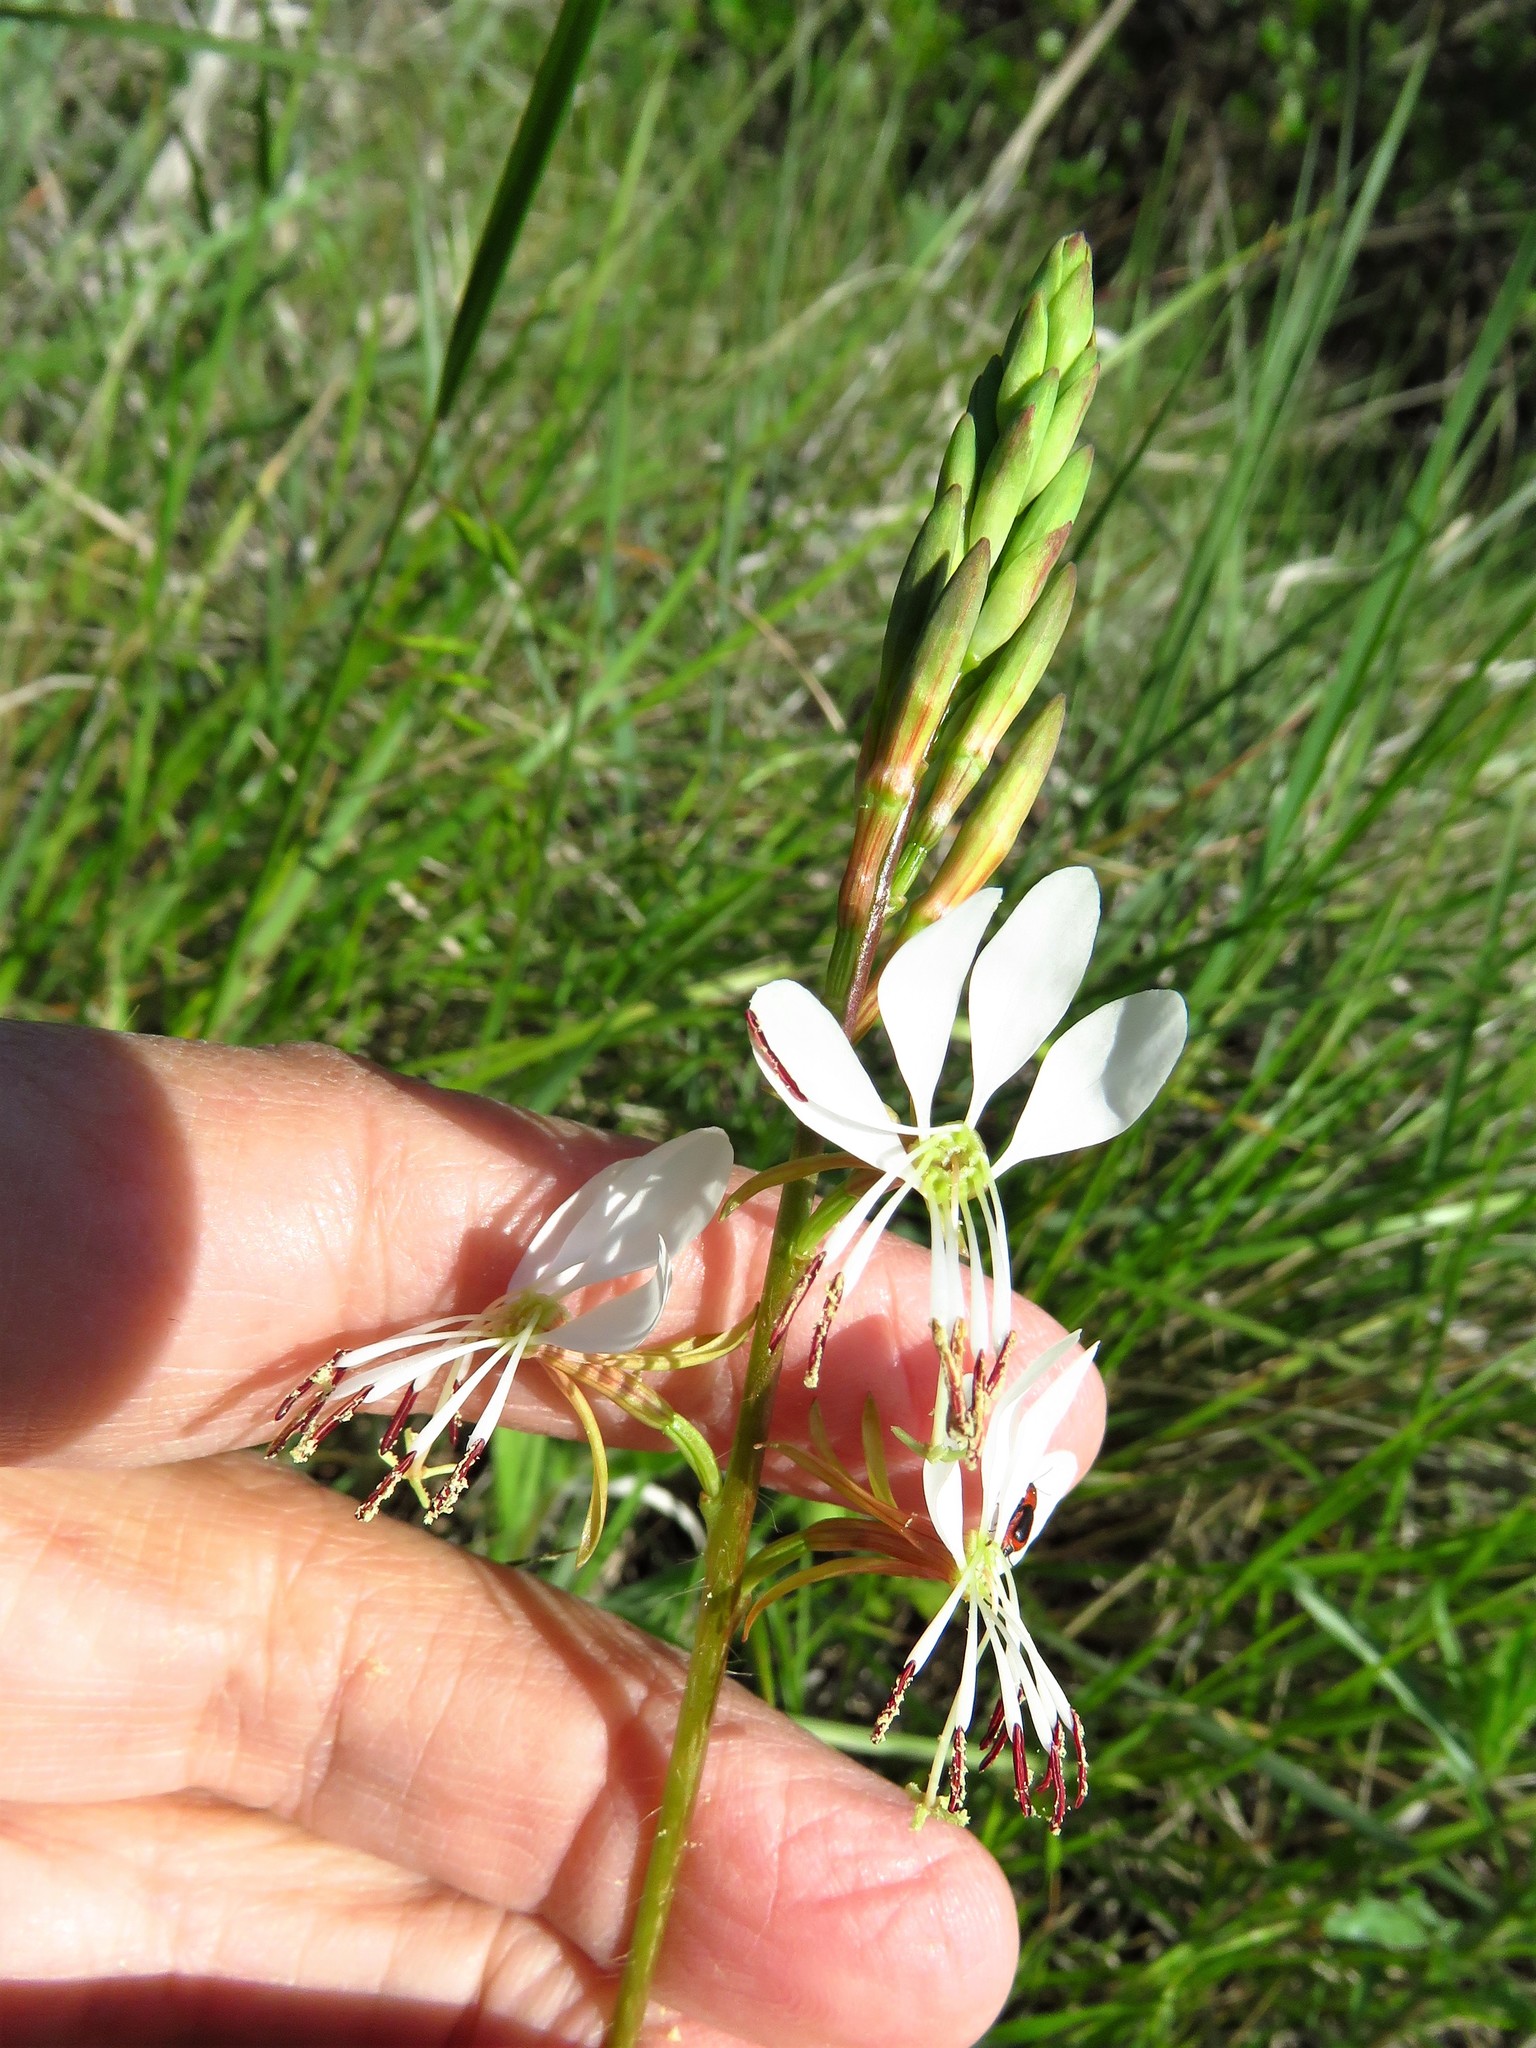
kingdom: Plantae
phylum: Tracheophyta
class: Magnoliopsida
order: Myrtales
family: Onagraceae
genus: Oenothera
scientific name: Oenothera suffulta
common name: Kisses
